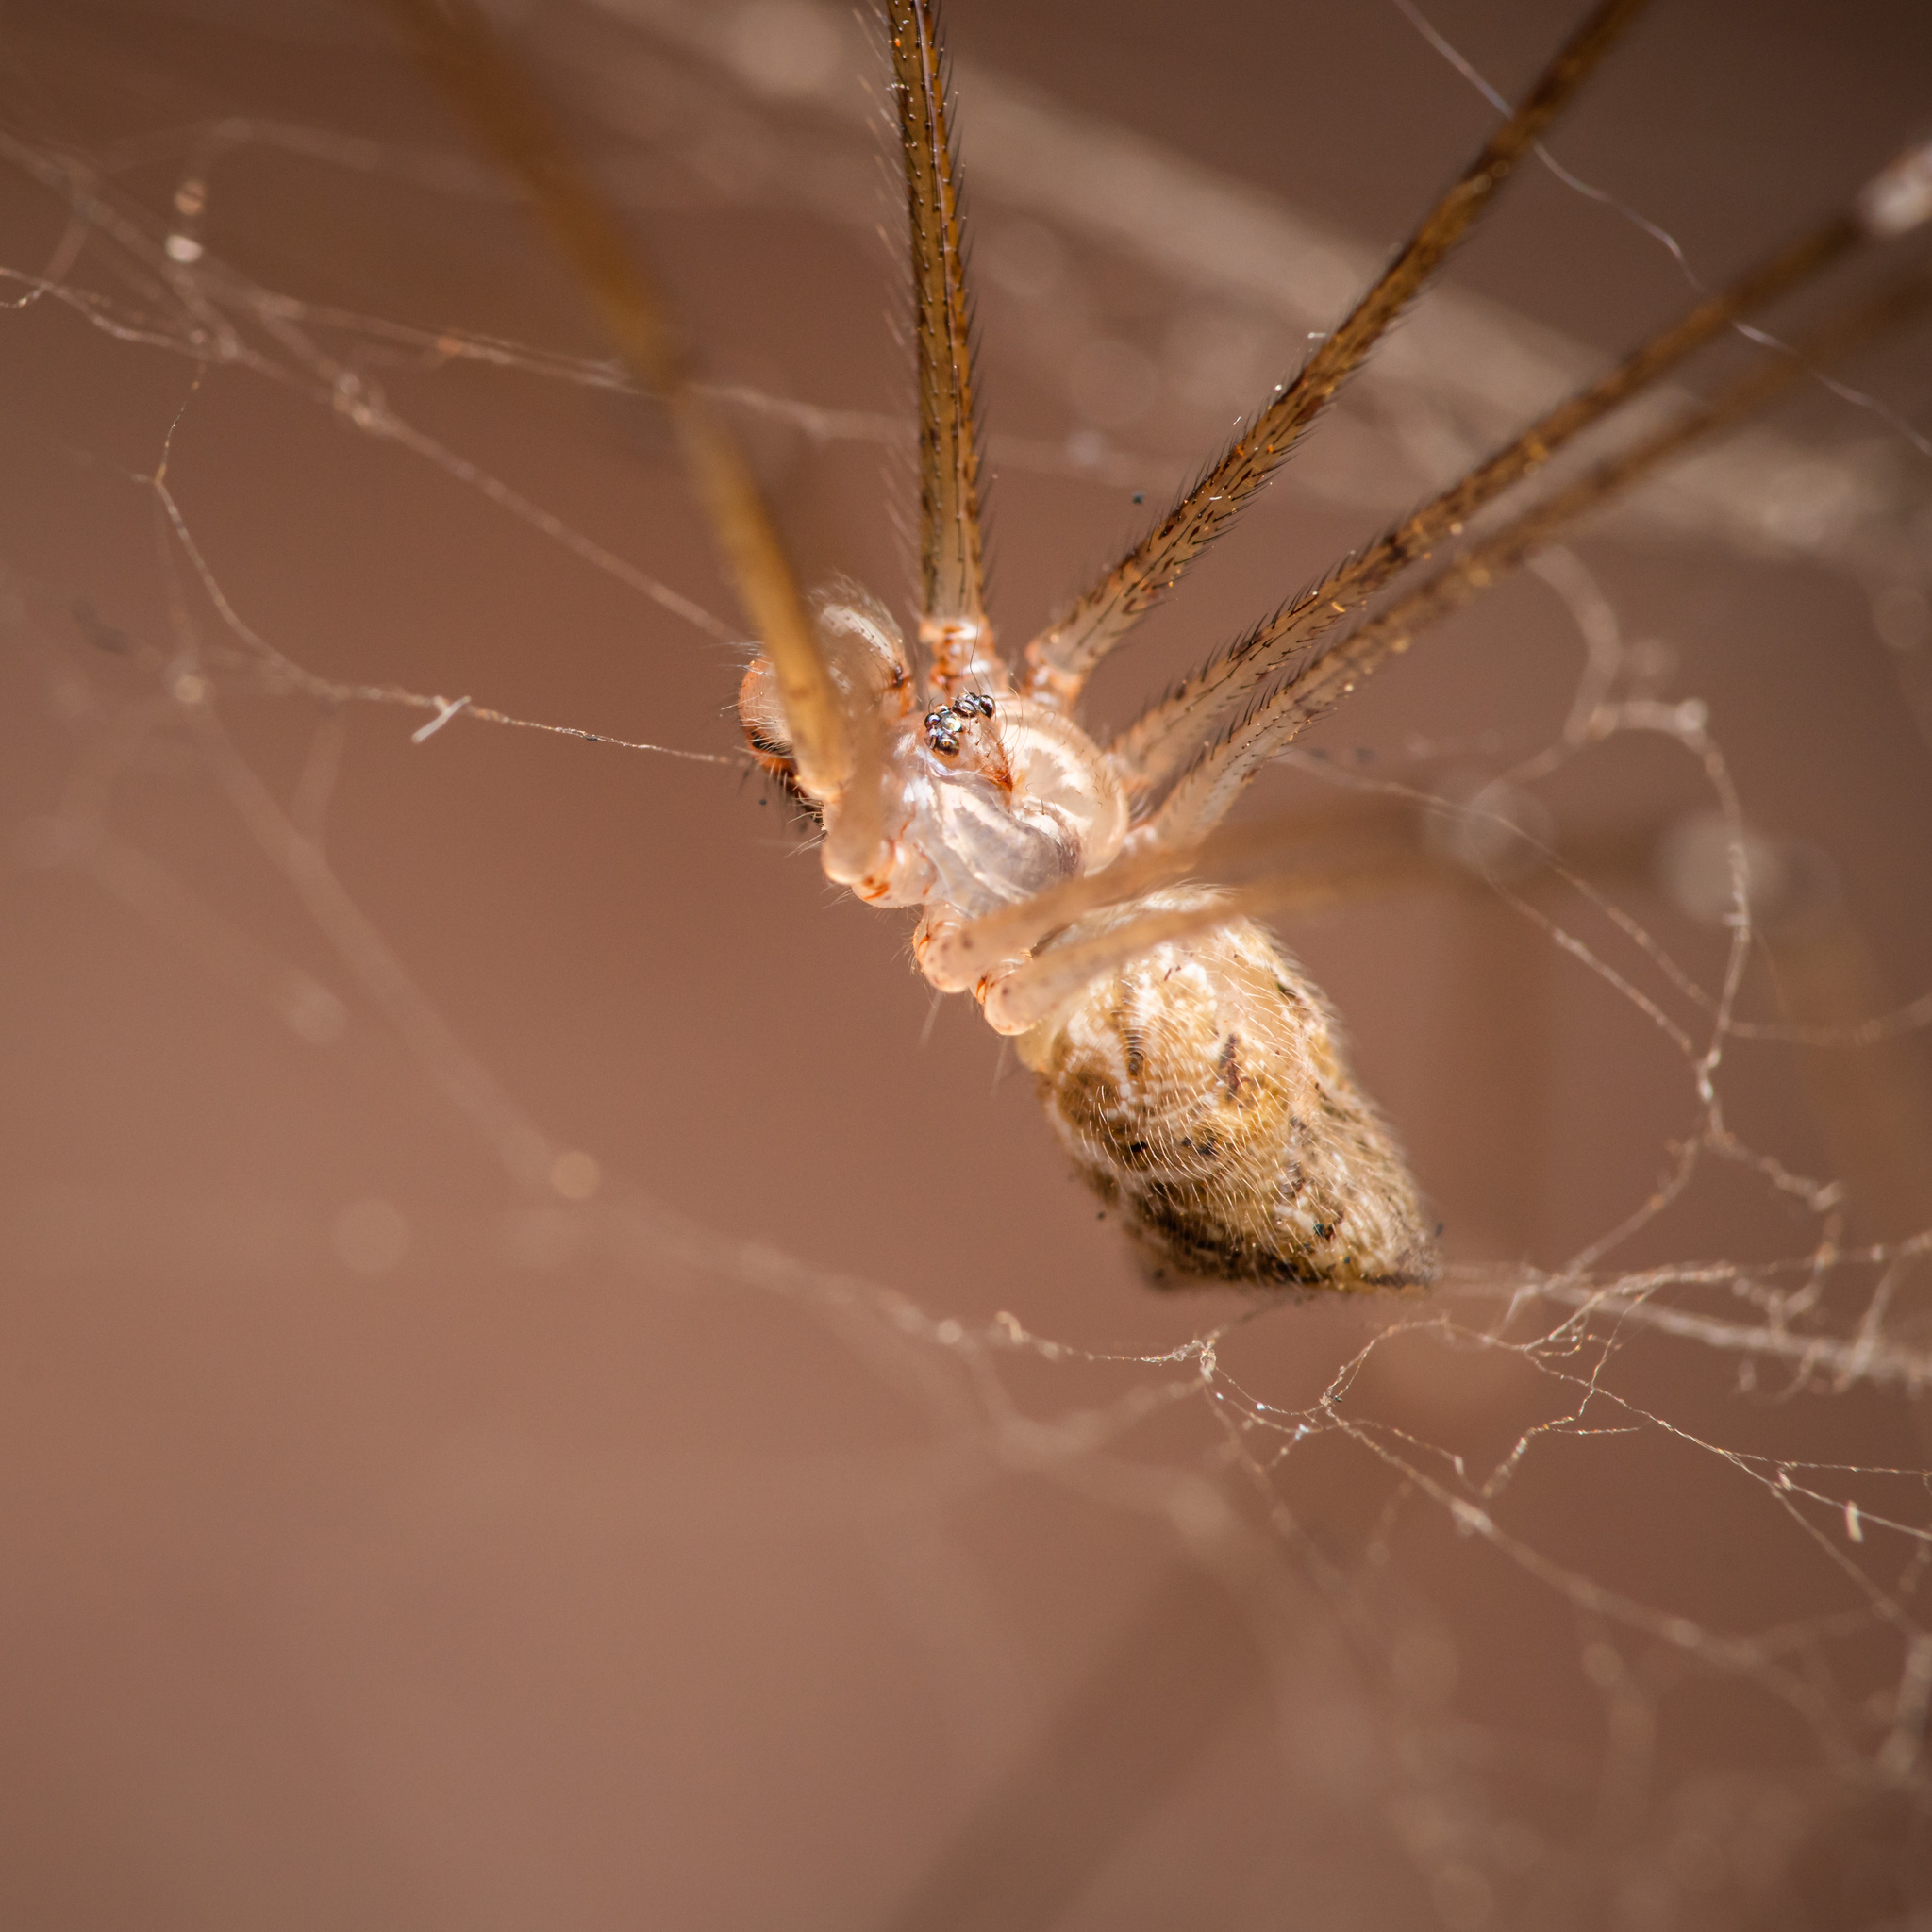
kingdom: Animalia
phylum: Arthropoda
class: Arachnida
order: Araneae
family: Pholcidae
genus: Crossopriza
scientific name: Crossopriza lyoni
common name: Cellar spiders
